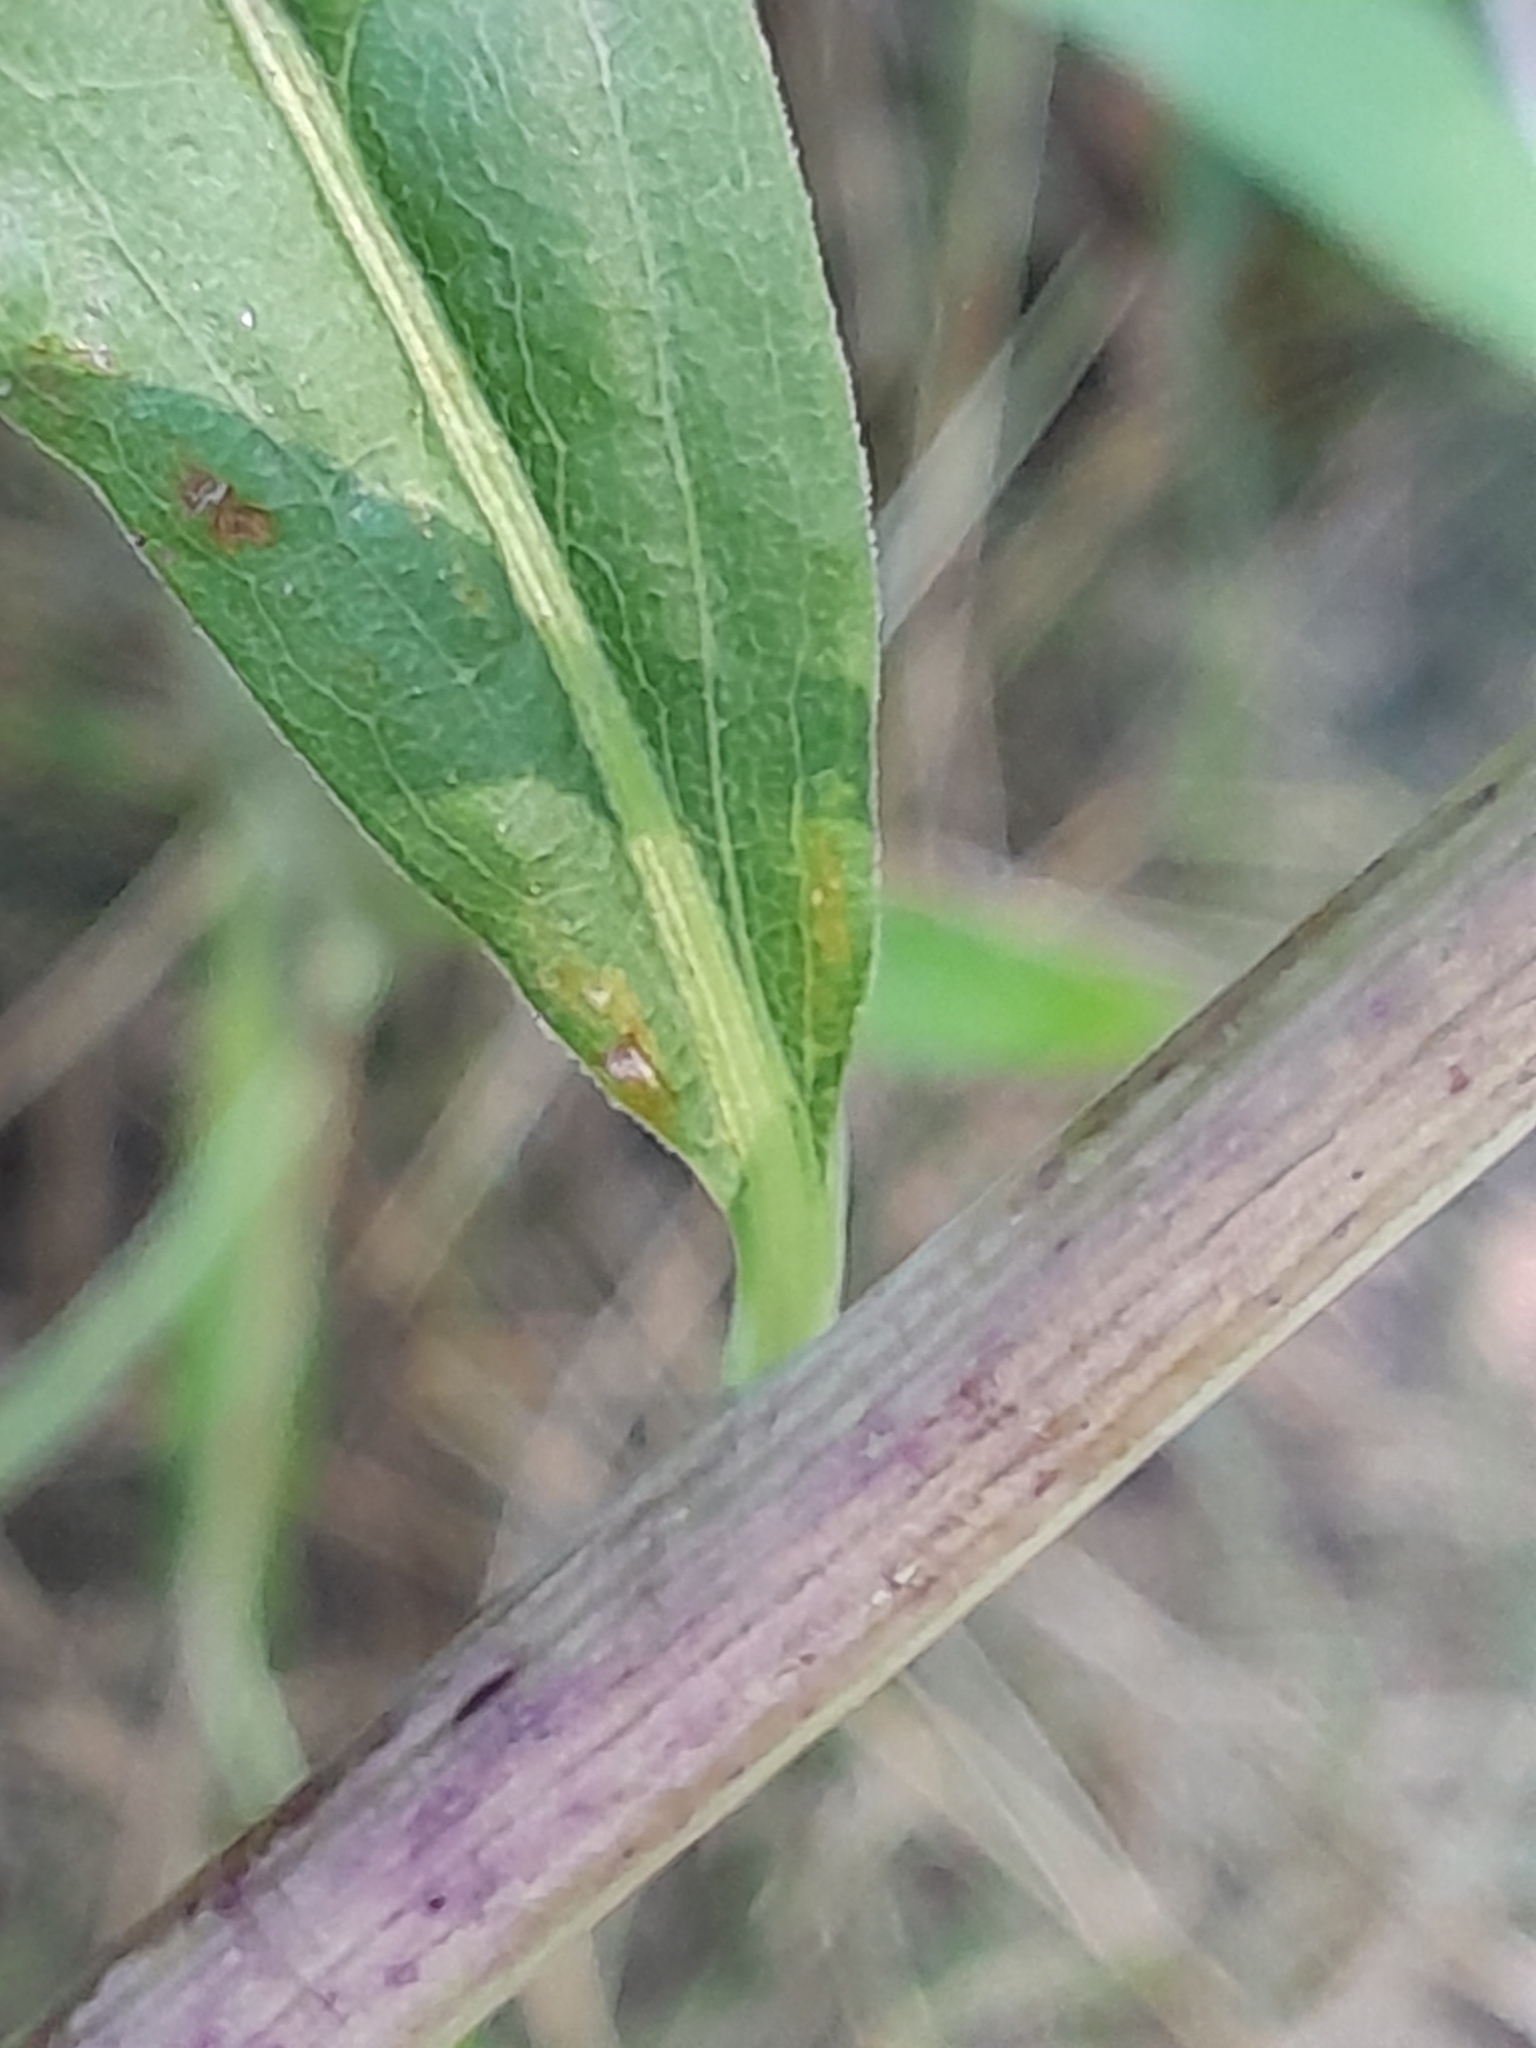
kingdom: Plantae
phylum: Tracheophyta
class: Magnoliopsida
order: Asterales
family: Asteraceae
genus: Solidago
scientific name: Solidago gigantea
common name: Giant goldenrod
